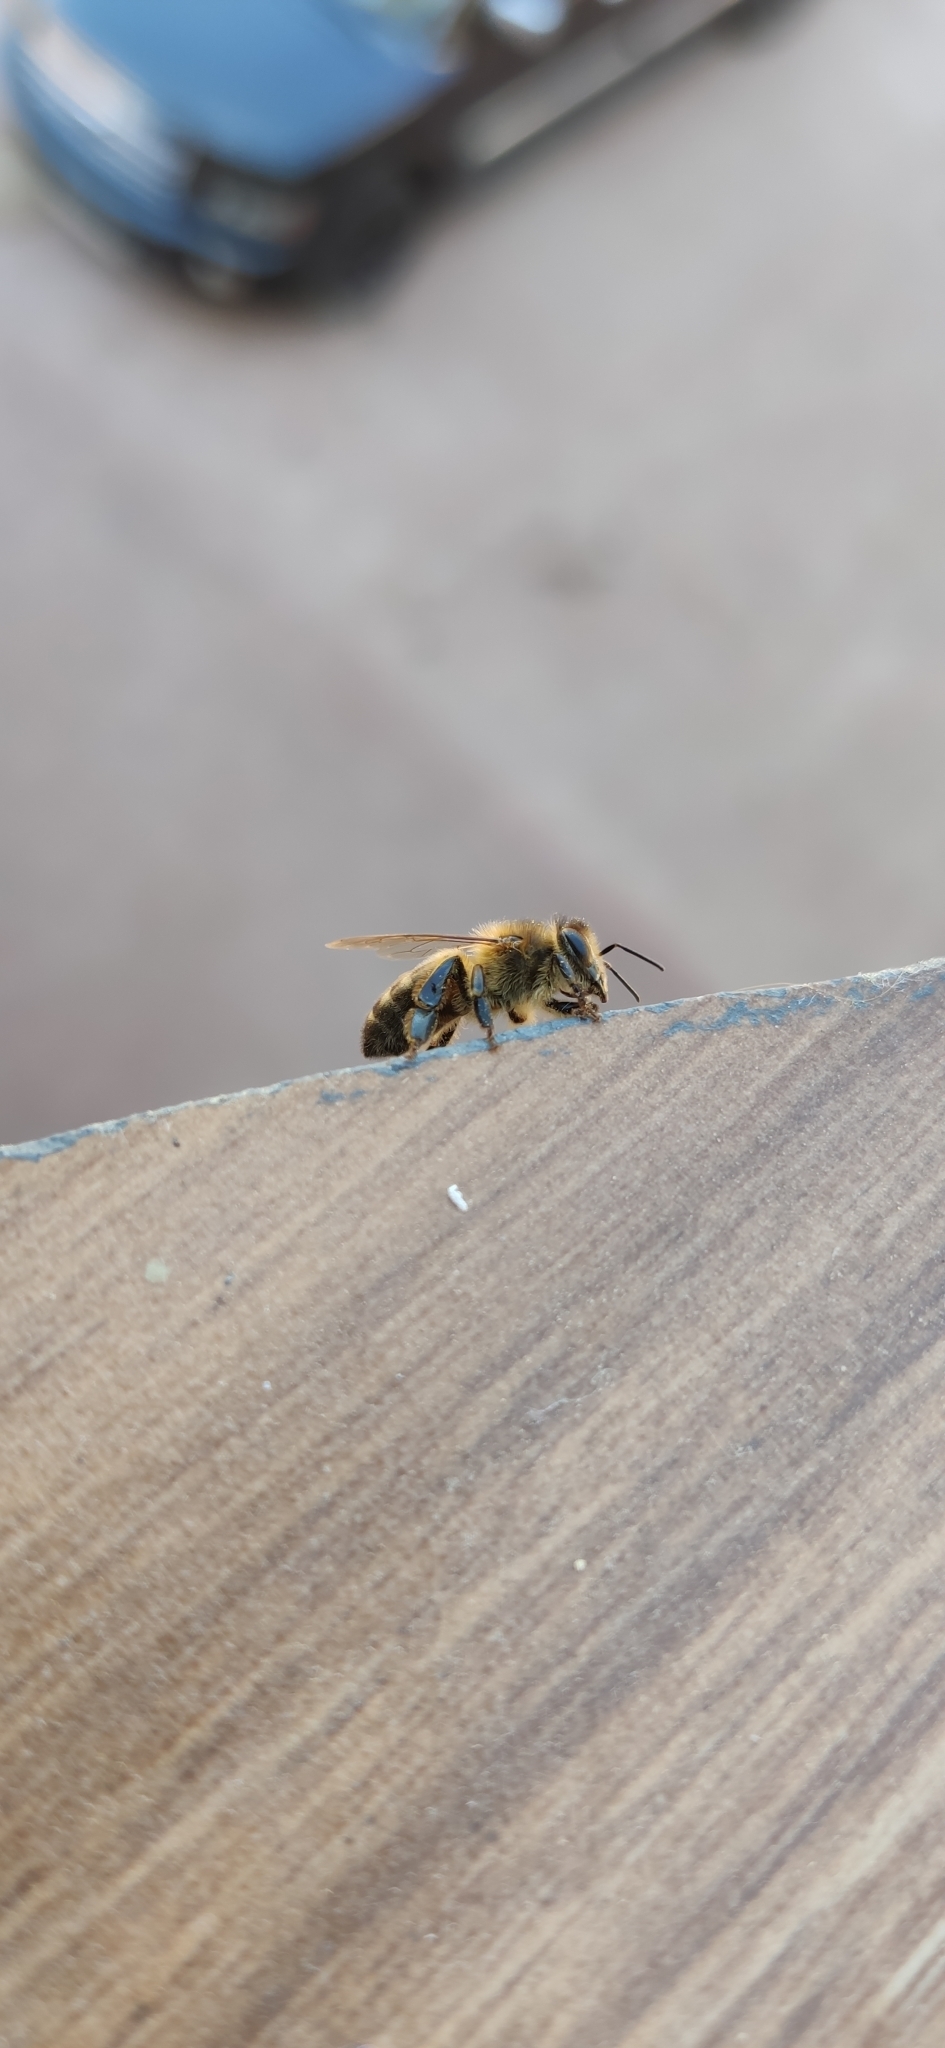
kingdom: Animalia
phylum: Arthropoda
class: Insecta
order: Hymenoptera
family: Apidae
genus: Apis
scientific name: Apis mellifera
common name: Honey bee
